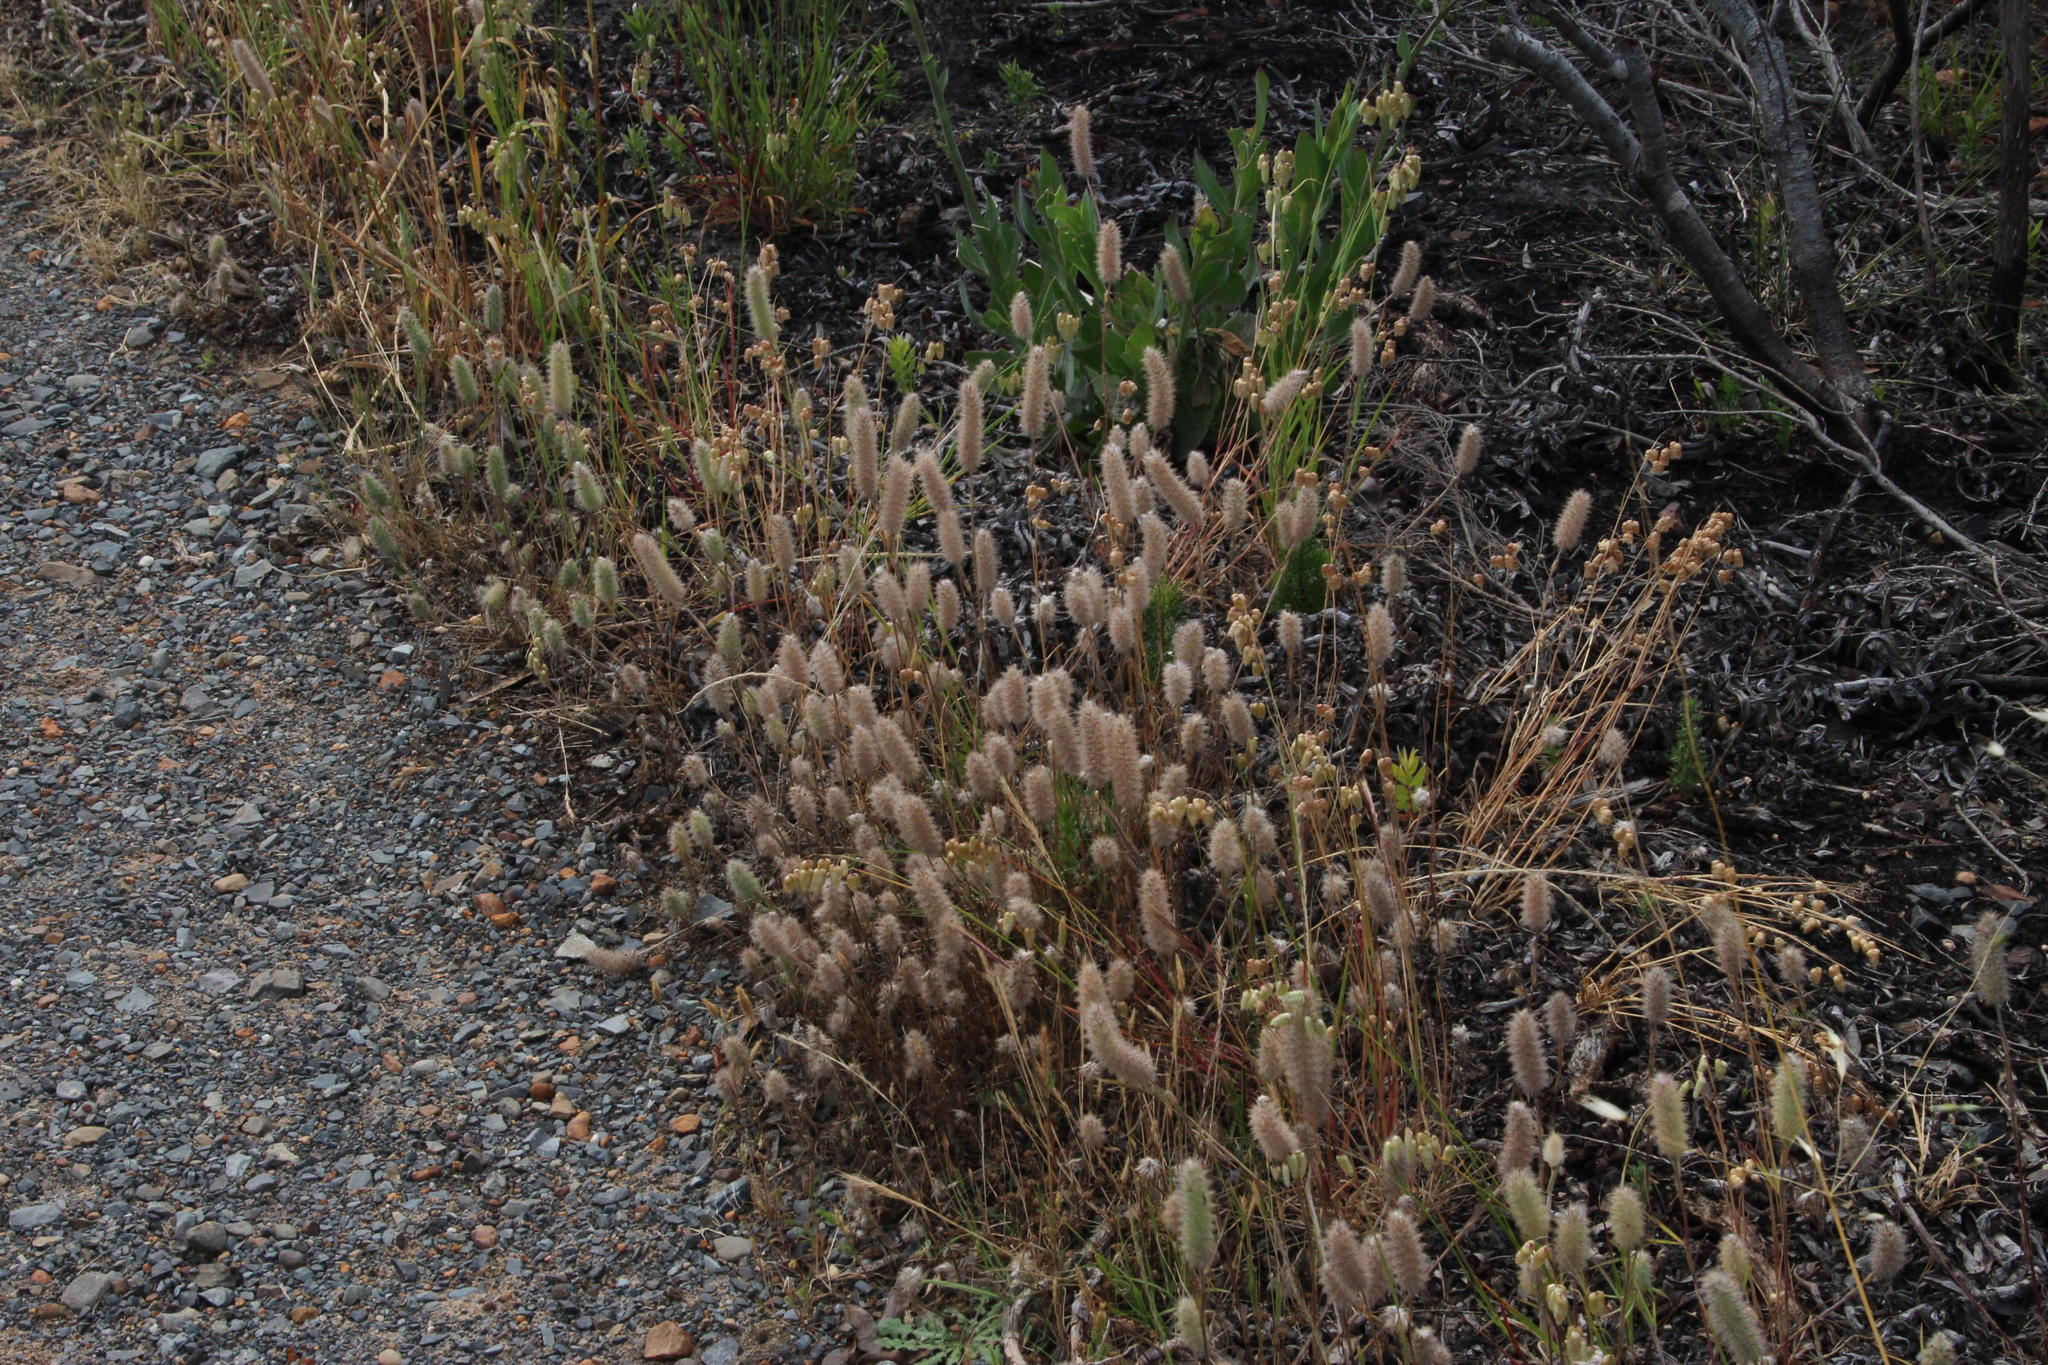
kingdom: Plantae
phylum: Tracheophyta
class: Magnoliopsida
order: Fabales
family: Fabaceae
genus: Trifolium
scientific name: Trifolium angustifolium
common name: Narrow clover
